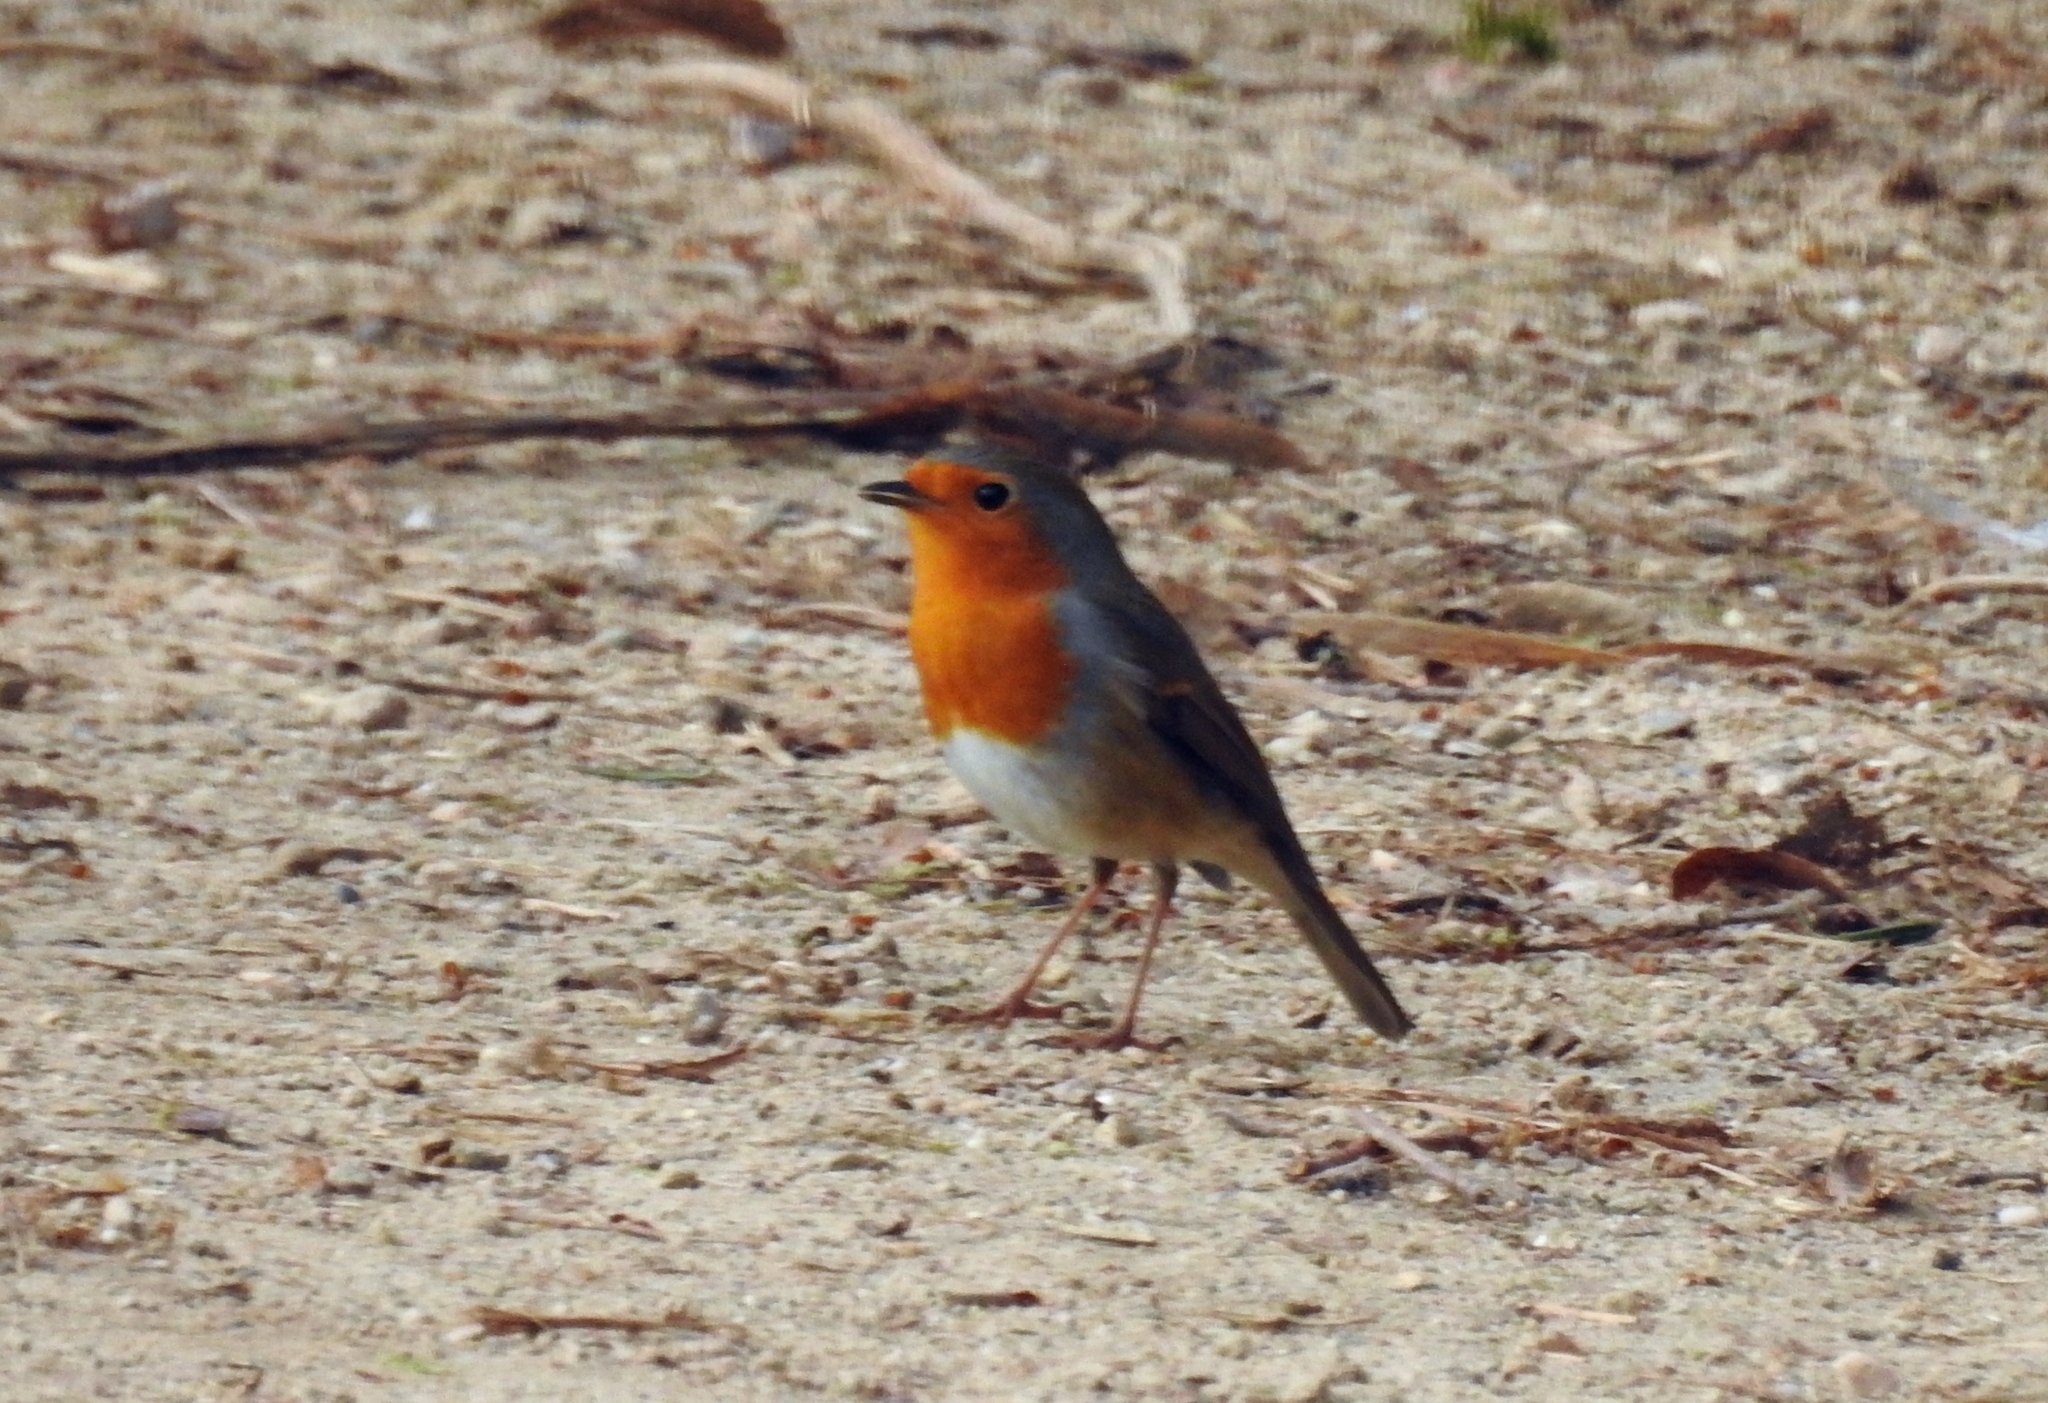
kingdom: Animalia
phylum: Chordata
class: Aves
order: Passeriformes
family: Muscicapidae
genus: Erithacus
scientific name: Erithacus rubecula
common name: European robin
